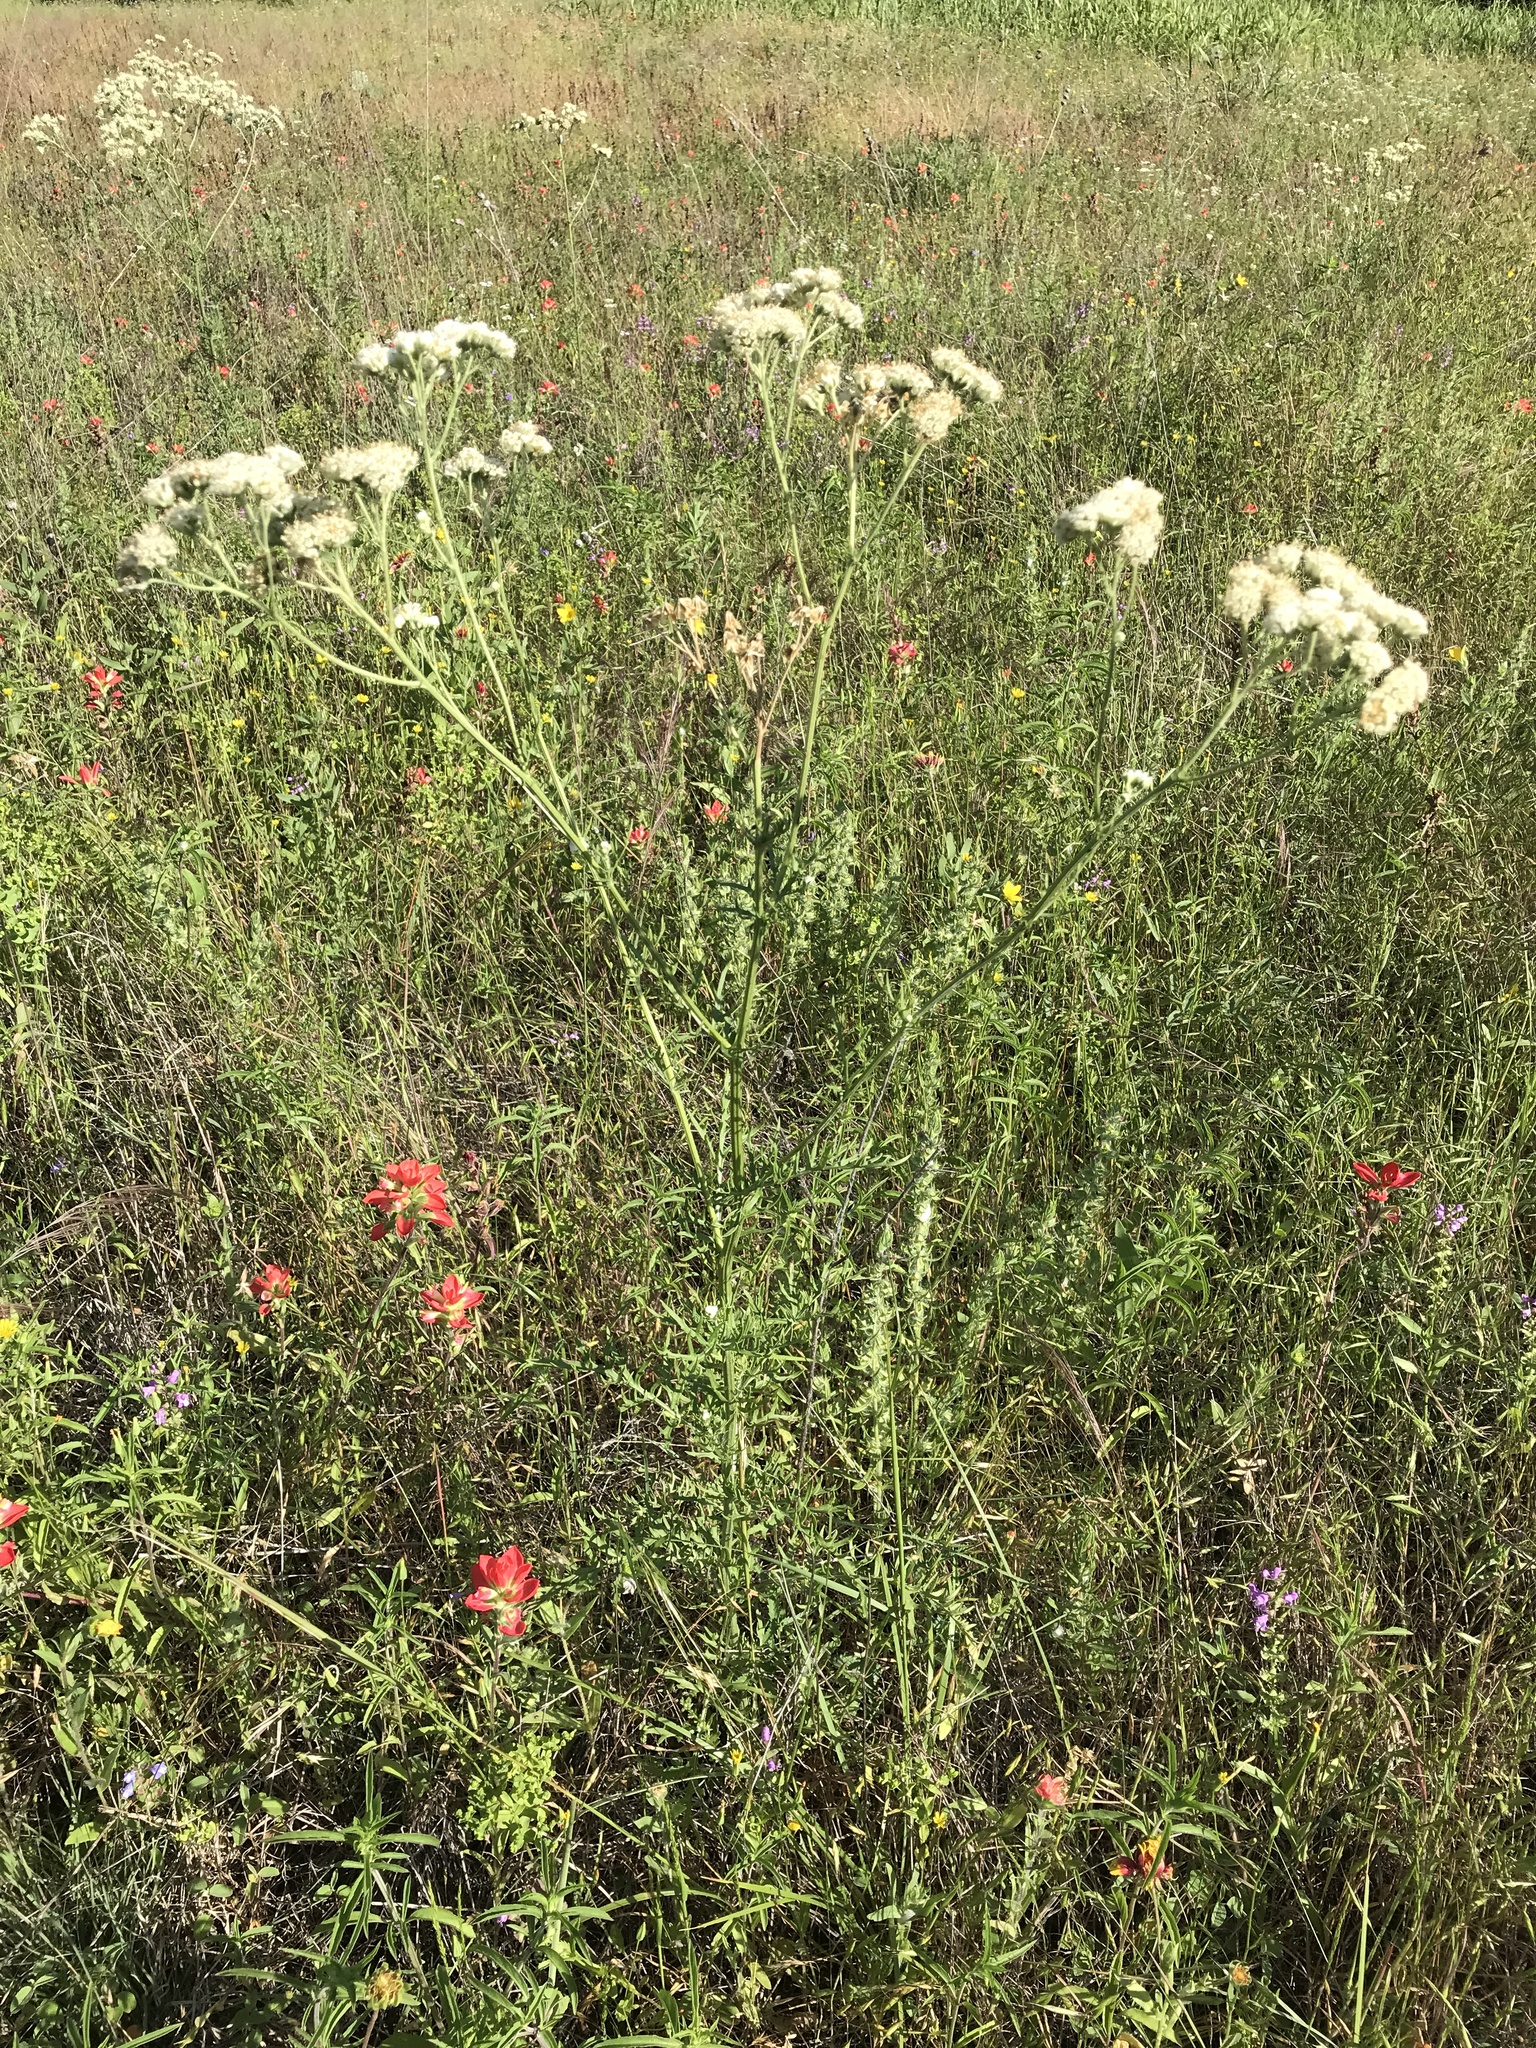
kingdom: Plantae
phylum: Tracheophyta
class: Magnoliopsida
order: Asterales
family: Asteraceae
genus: Hymenopappus
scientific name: Hymenopappus scabiosaeus
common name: Carolina woollywhite
